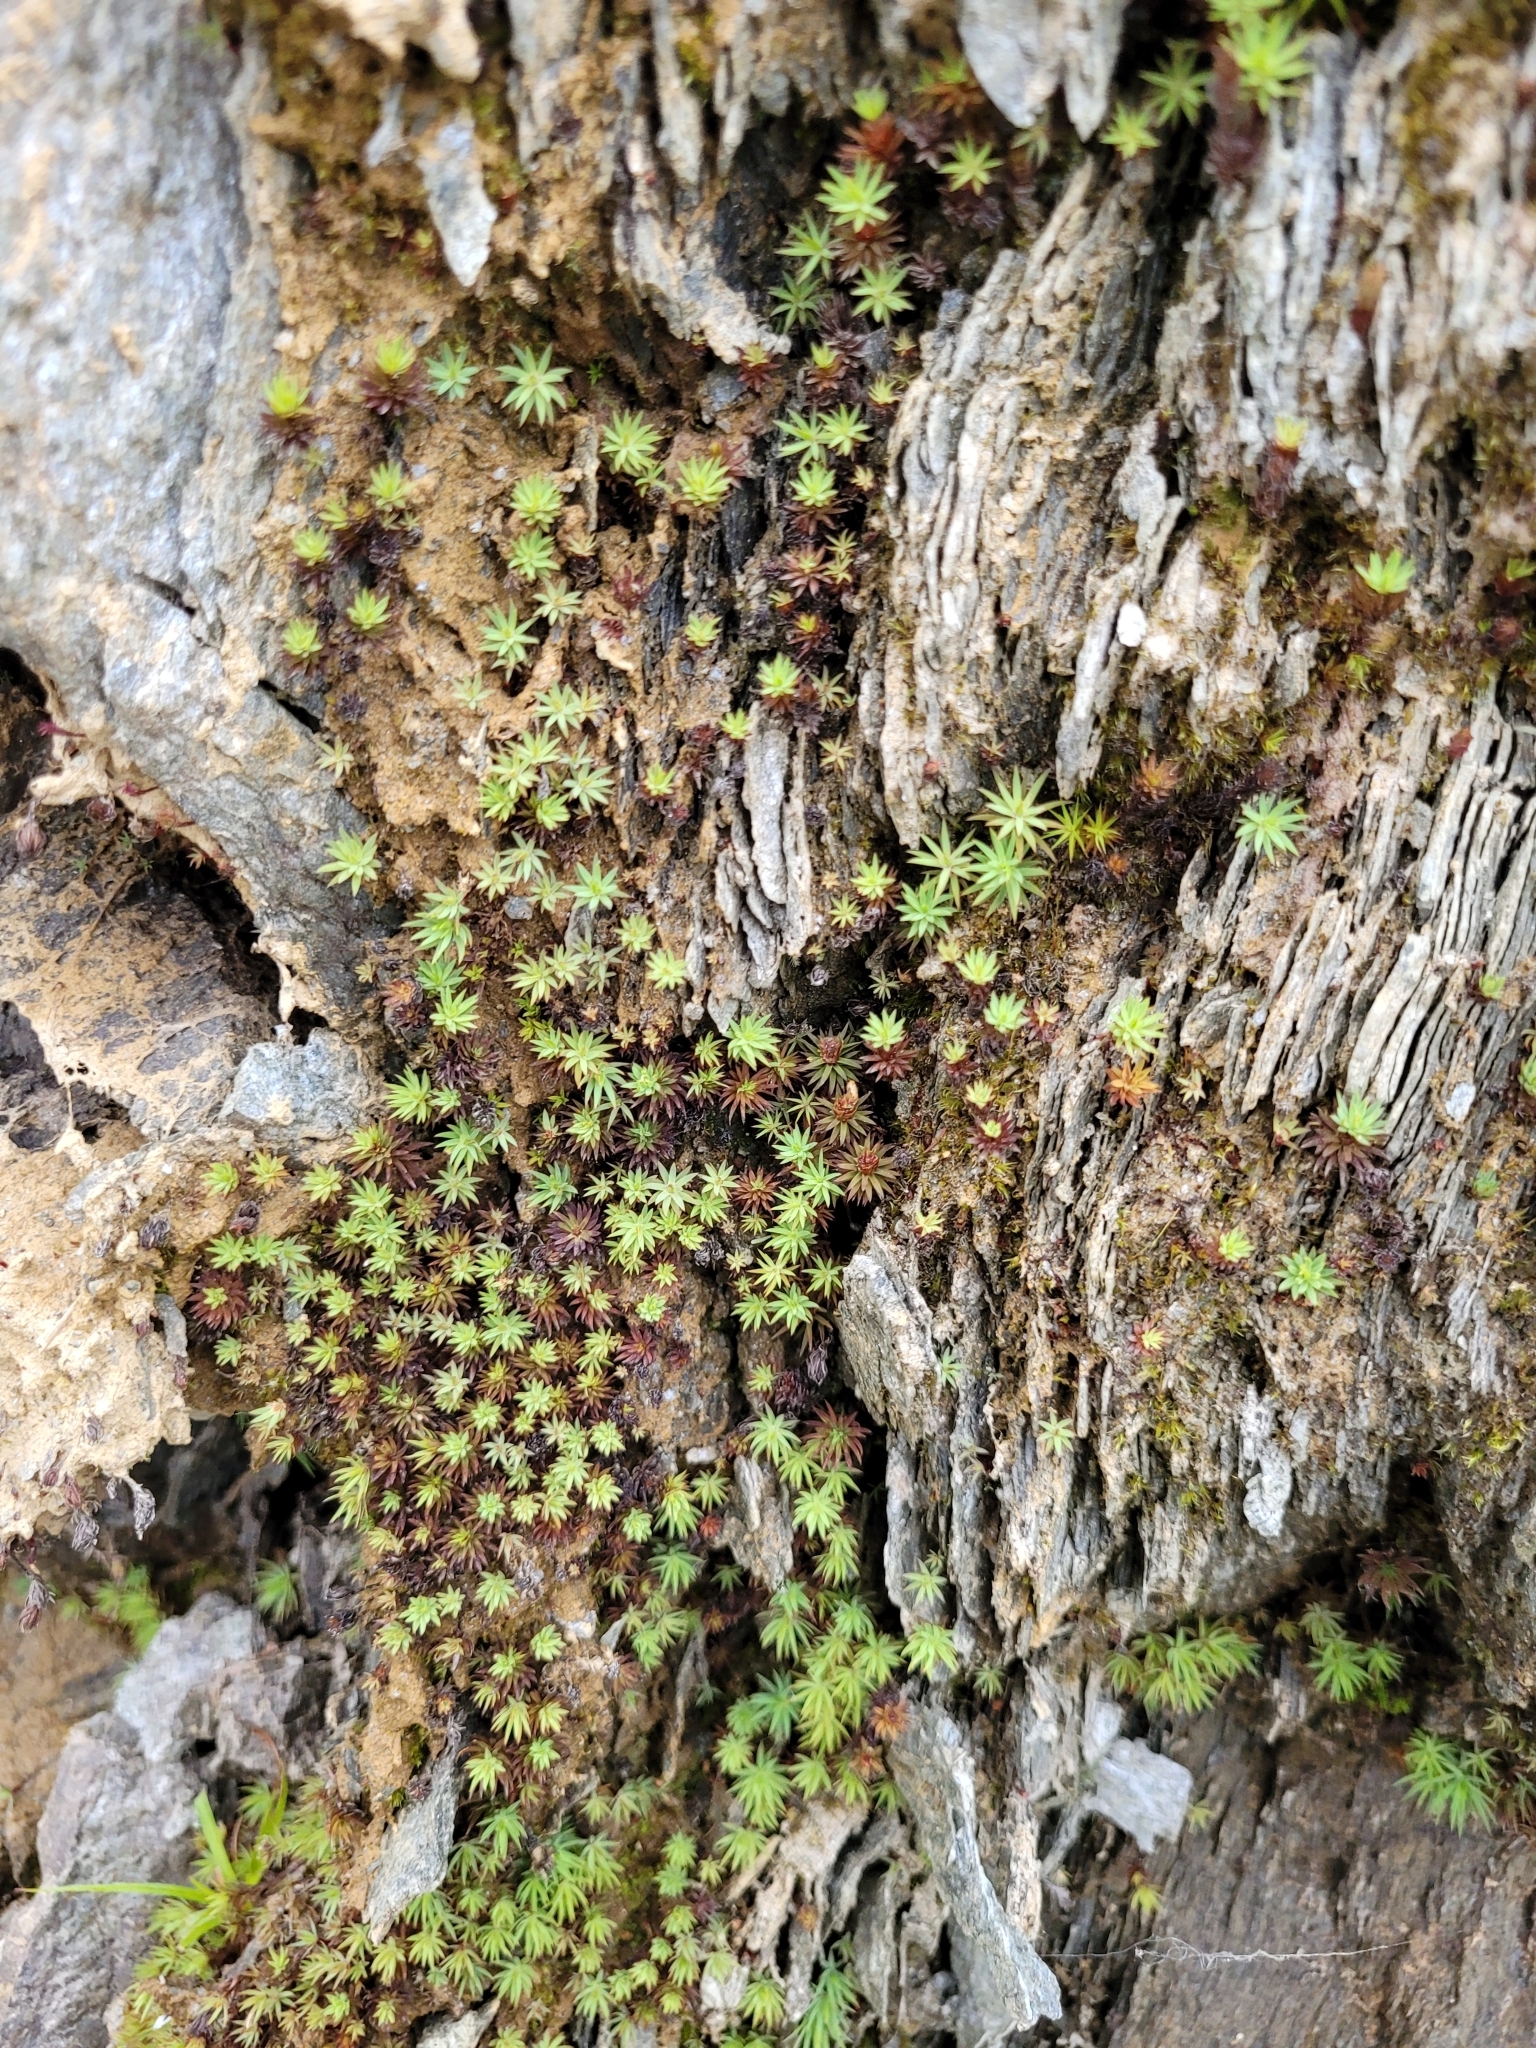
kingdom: Plantae
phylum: Bryophyta
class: Polytrichopsida
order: Polytrichales
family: Polytrichaceae
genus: Pogonatum
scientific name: Pogonatum urnigerum
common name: Urn hair moss
